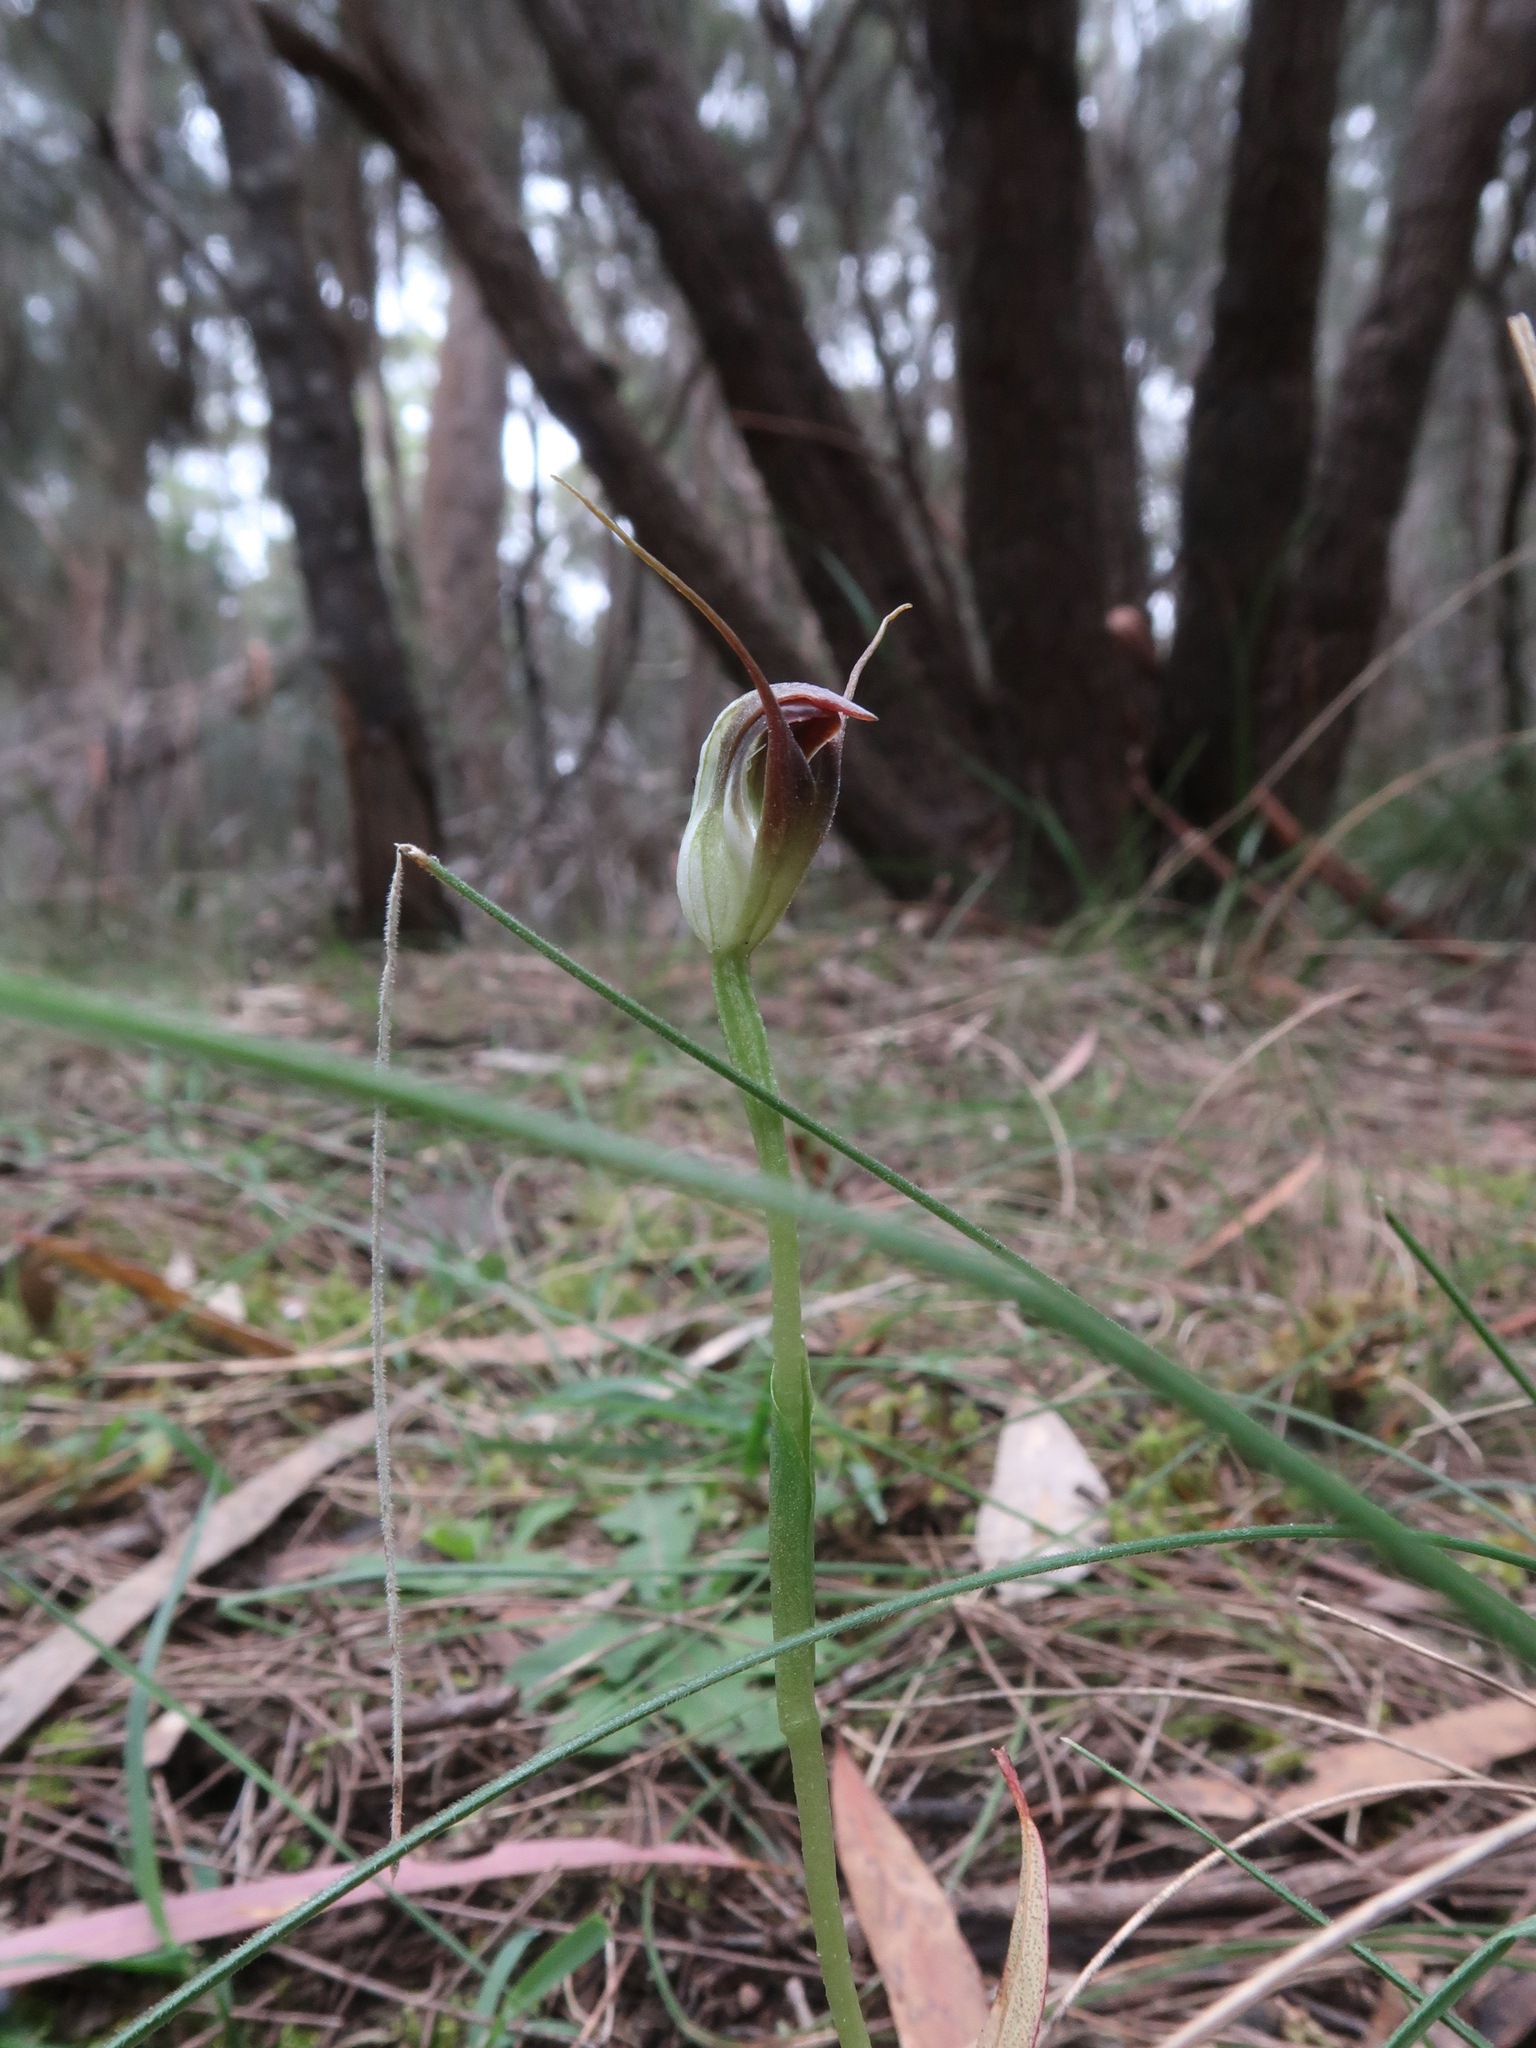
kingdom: Plantae
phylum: Tracheophyta
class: Liliopsida
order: Asparagales
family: Orchidaceae
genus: Pterostylis
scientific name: Pterostylis pedunculata
